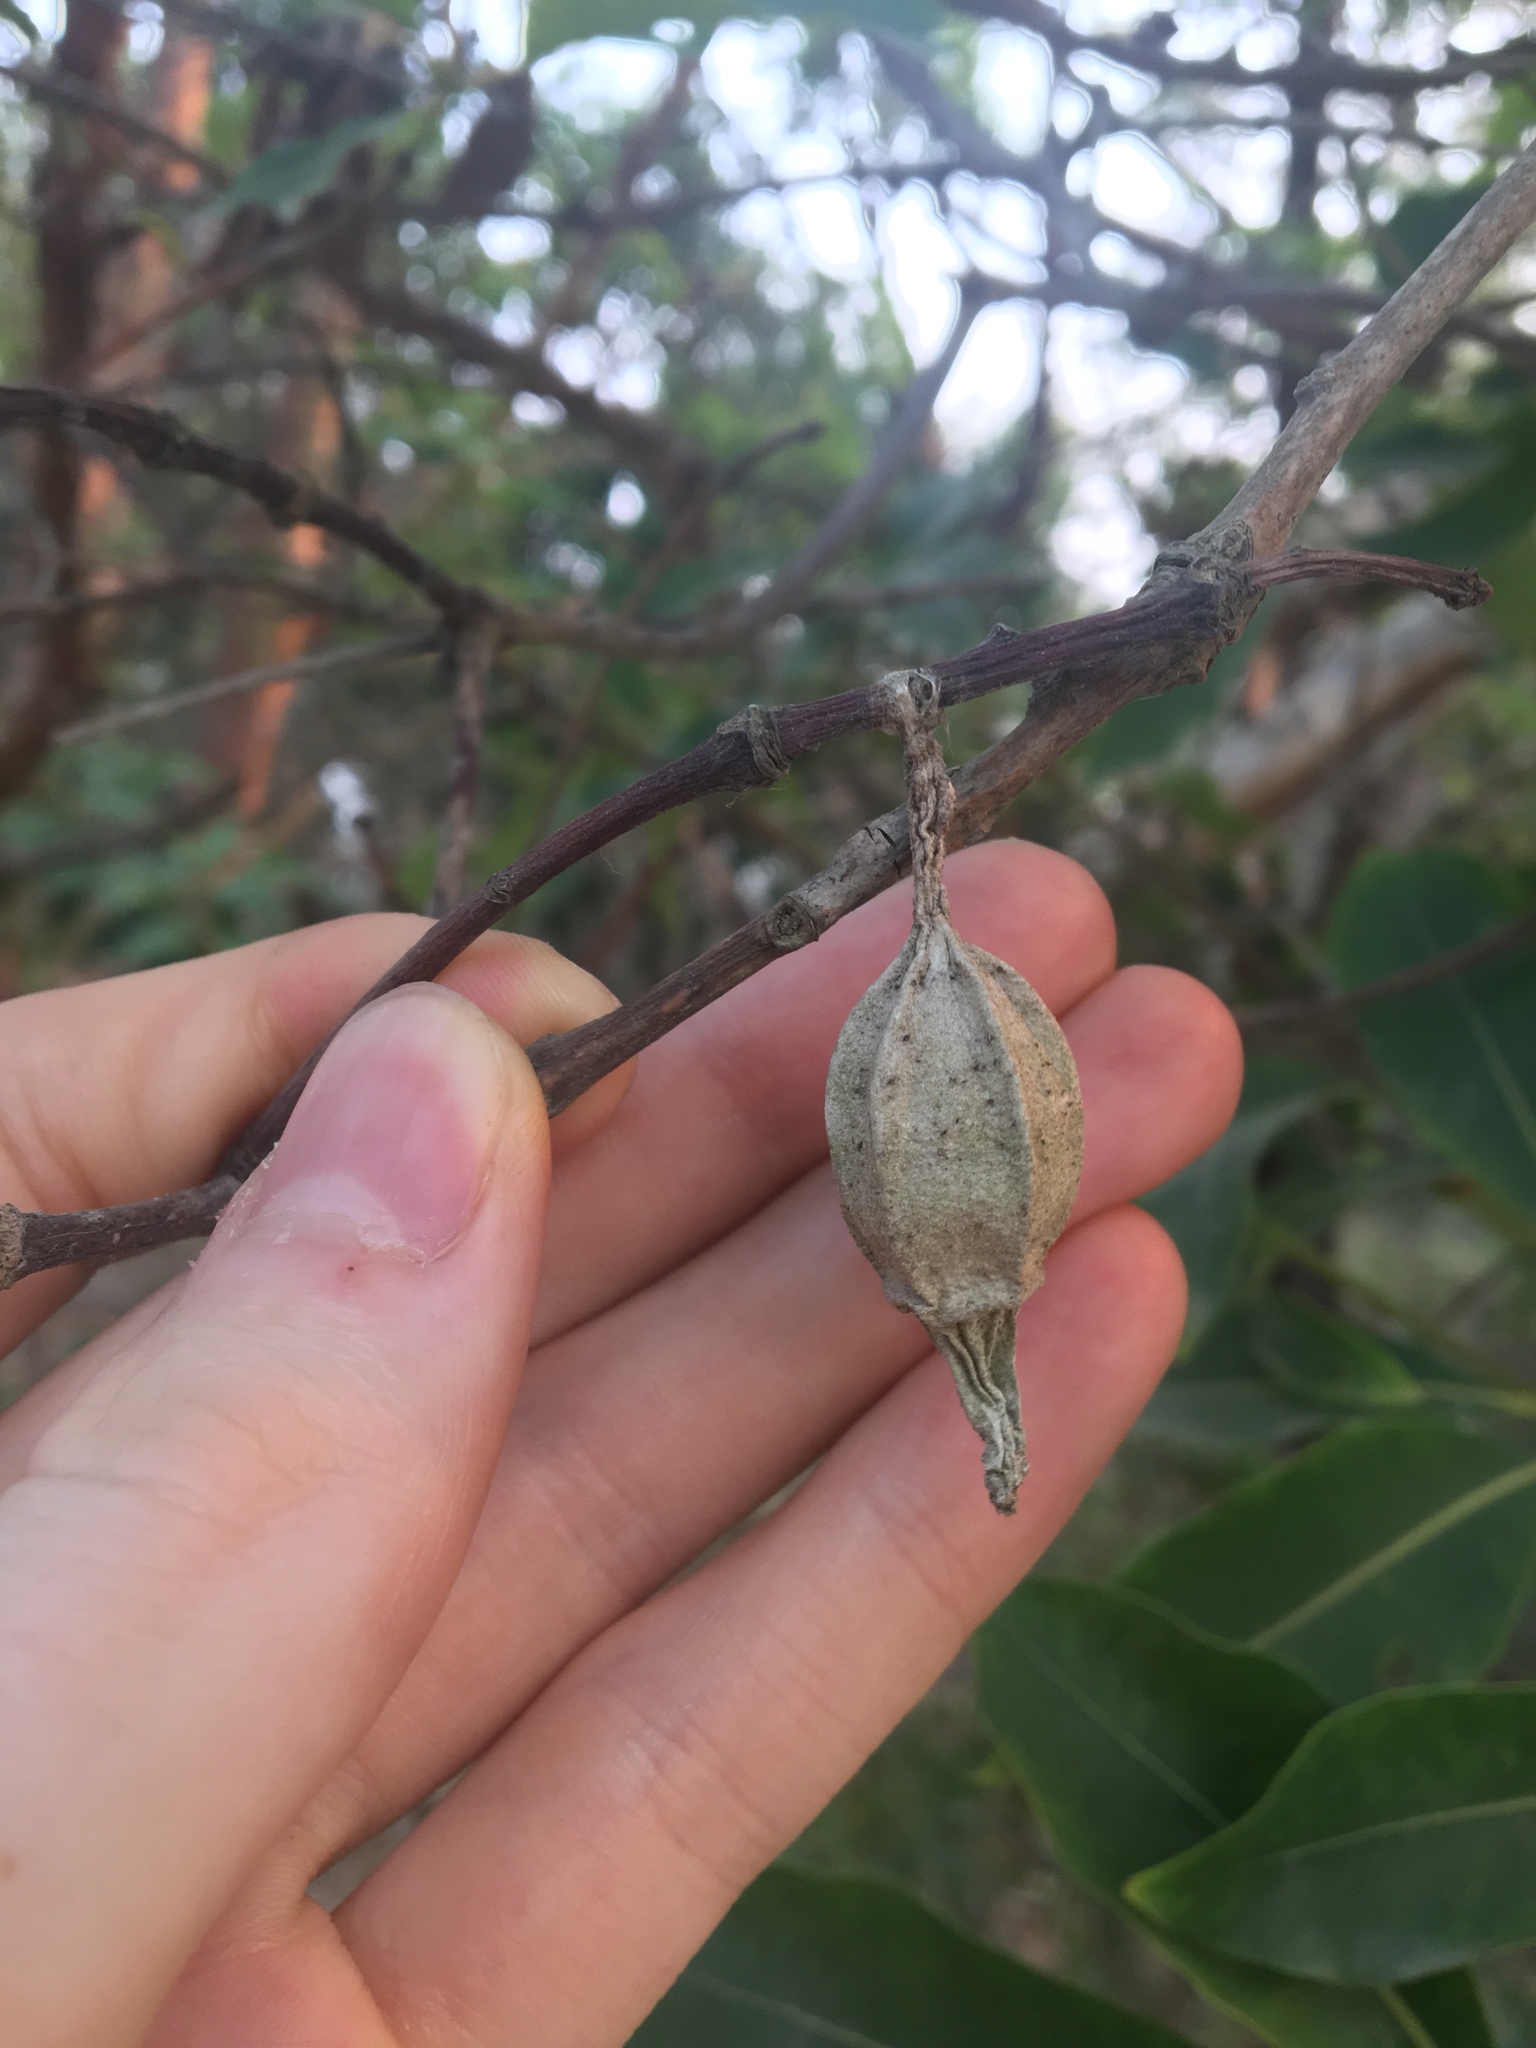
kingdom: Animalia
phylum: Arthropoda
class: Insecta
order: Lepidoptera
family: Psychidae
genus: Hyalarcta
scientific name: Hyalarcta nigrescens
